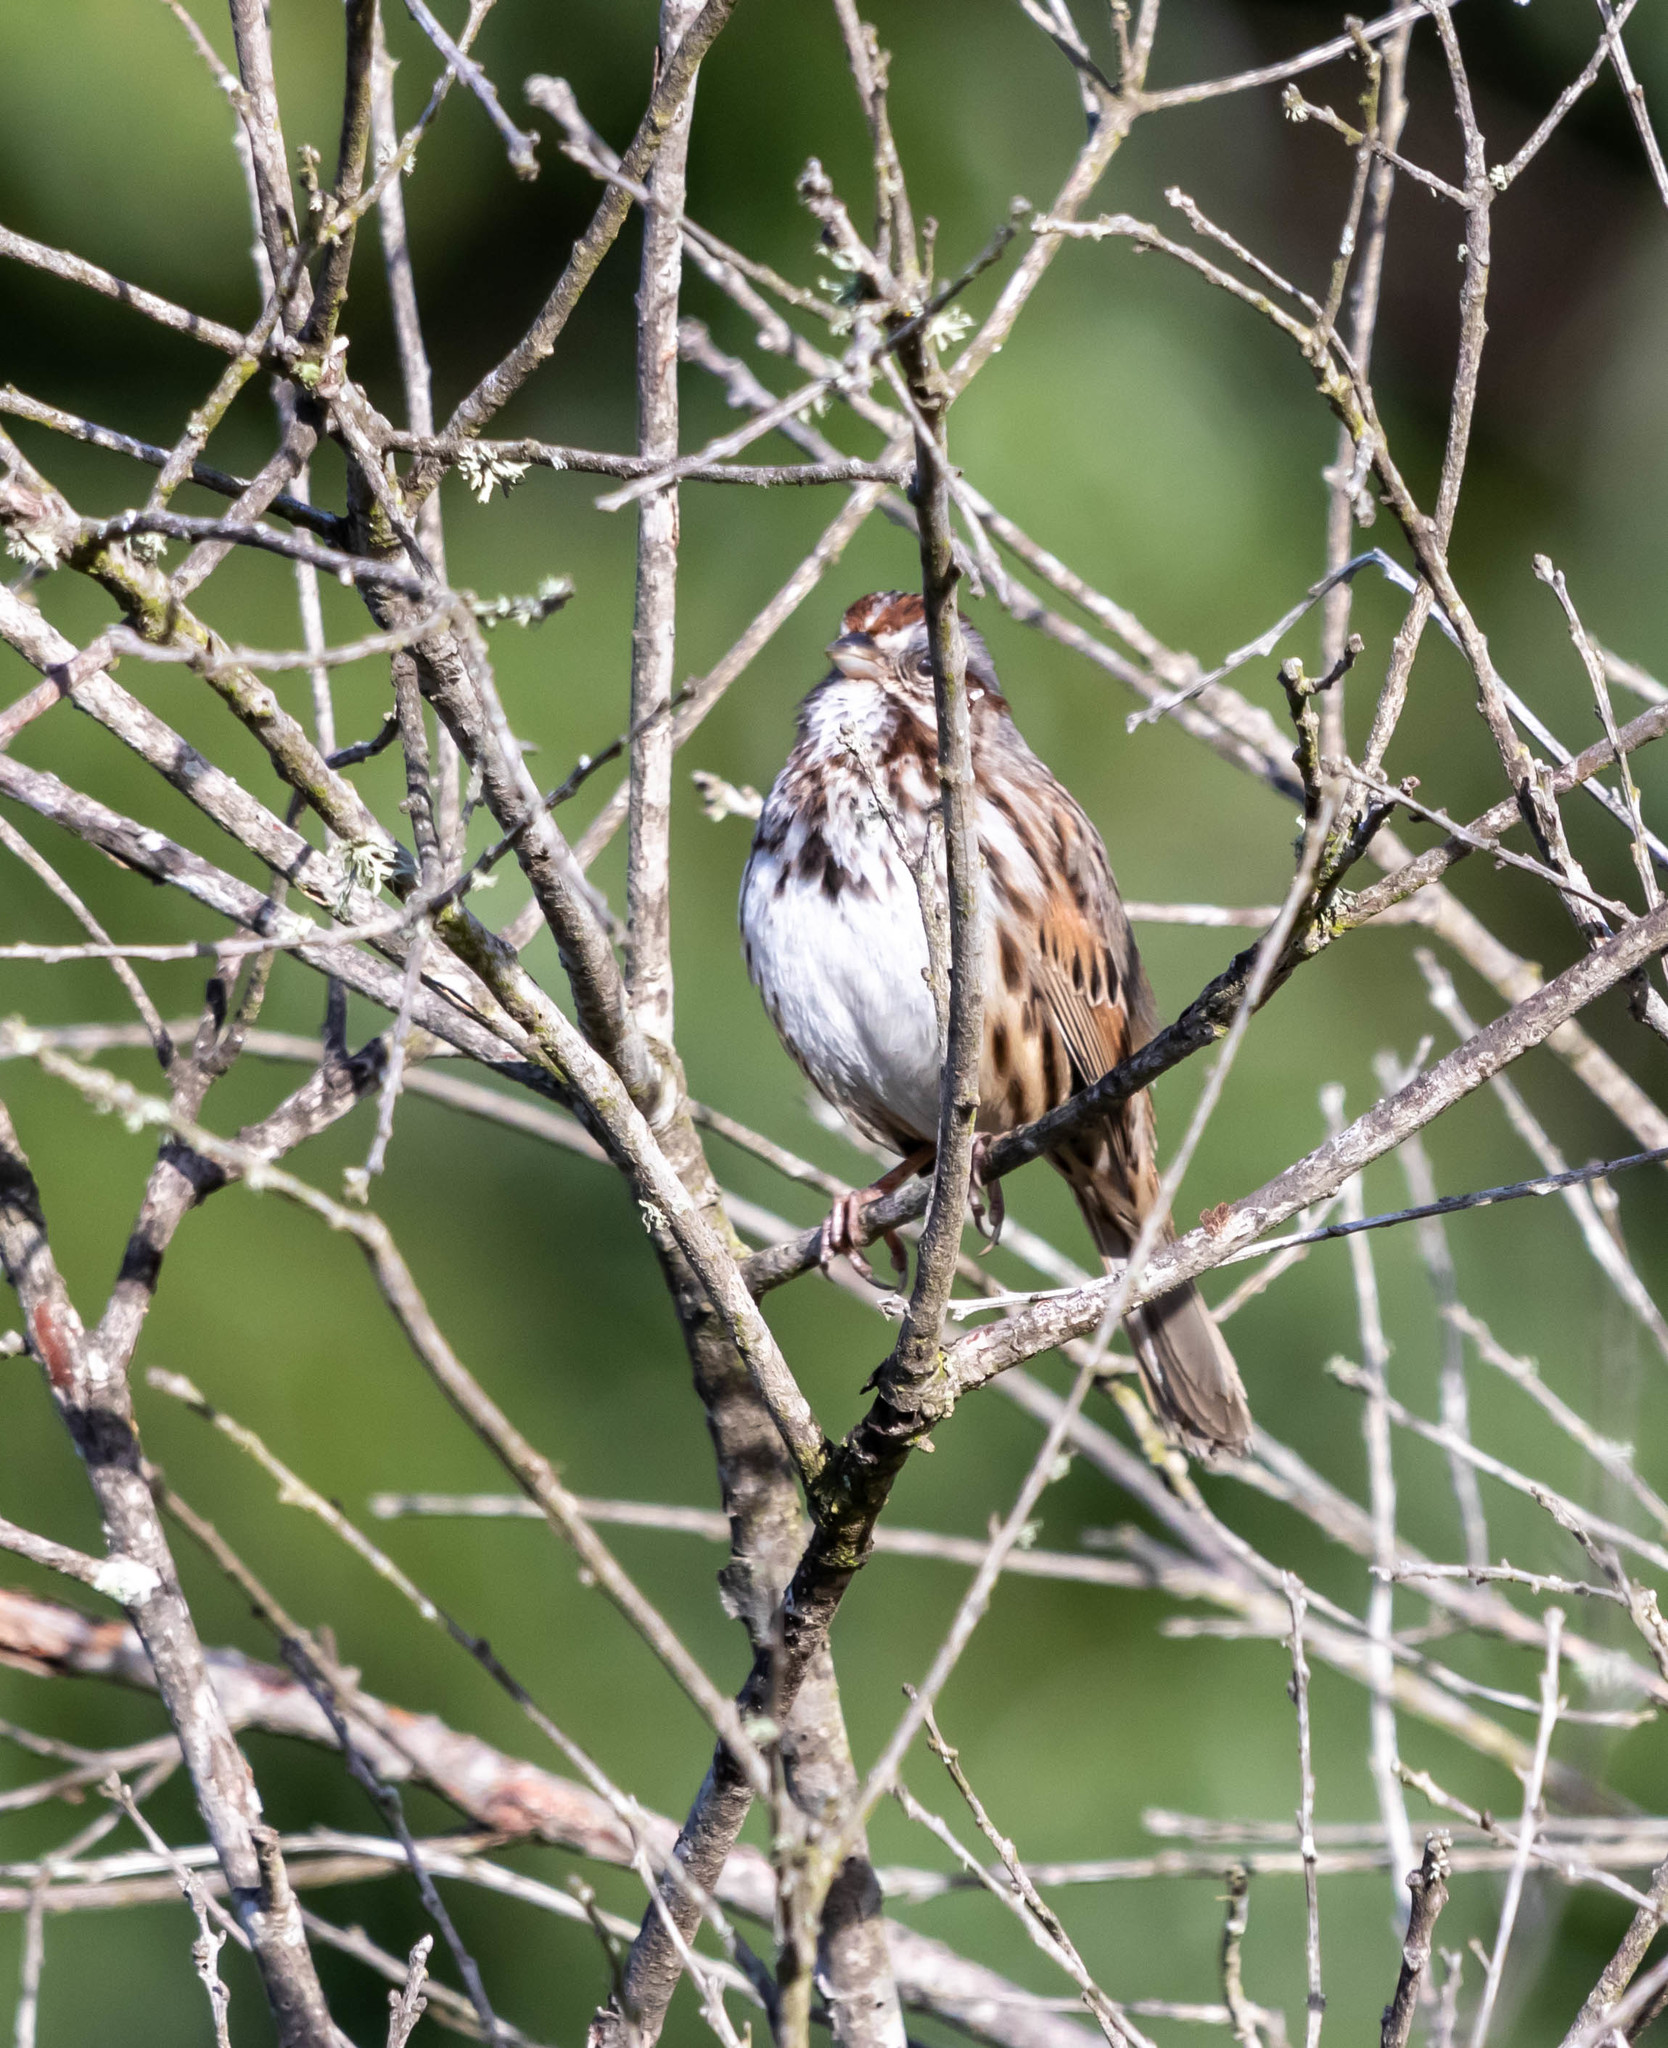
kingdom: Animalia
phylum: Chordata
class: Aves
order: Passeriformes
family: Passerellidae
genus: Melospiza
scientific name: Melospiza melodia
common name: Song sparrow
